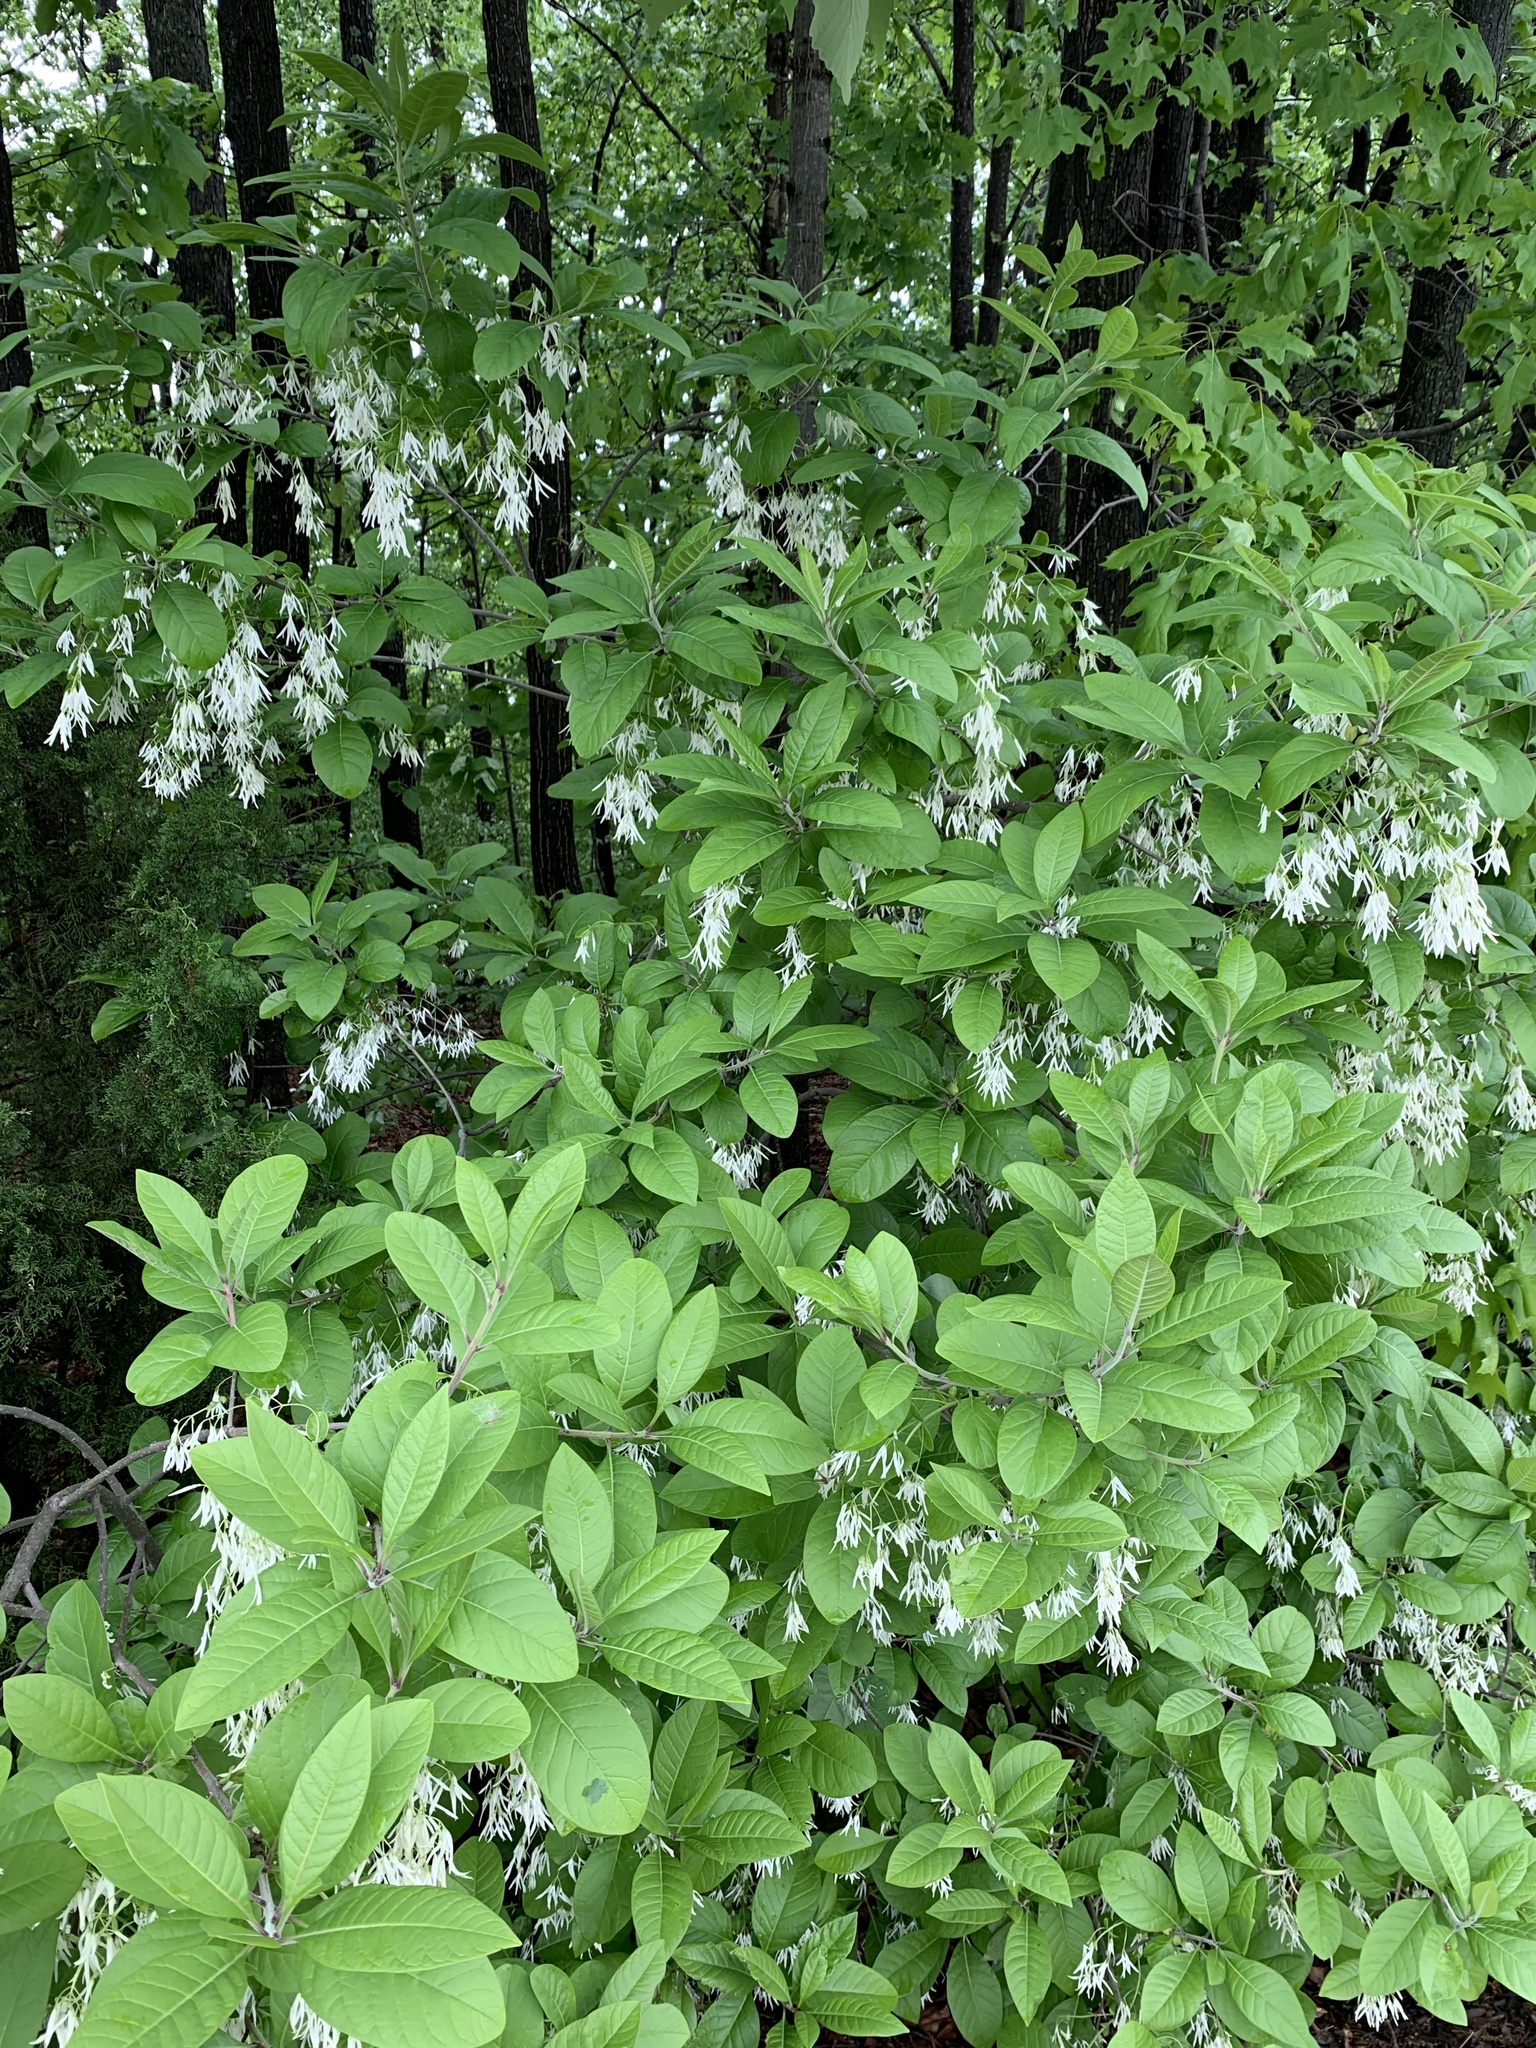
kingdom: Plantae
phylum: Tracheophyta
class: Magnoliopsida
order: Lamiales
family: Oleaceae
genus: Chionanthus
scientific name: Chionanthus virginicus
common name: American fringetree
